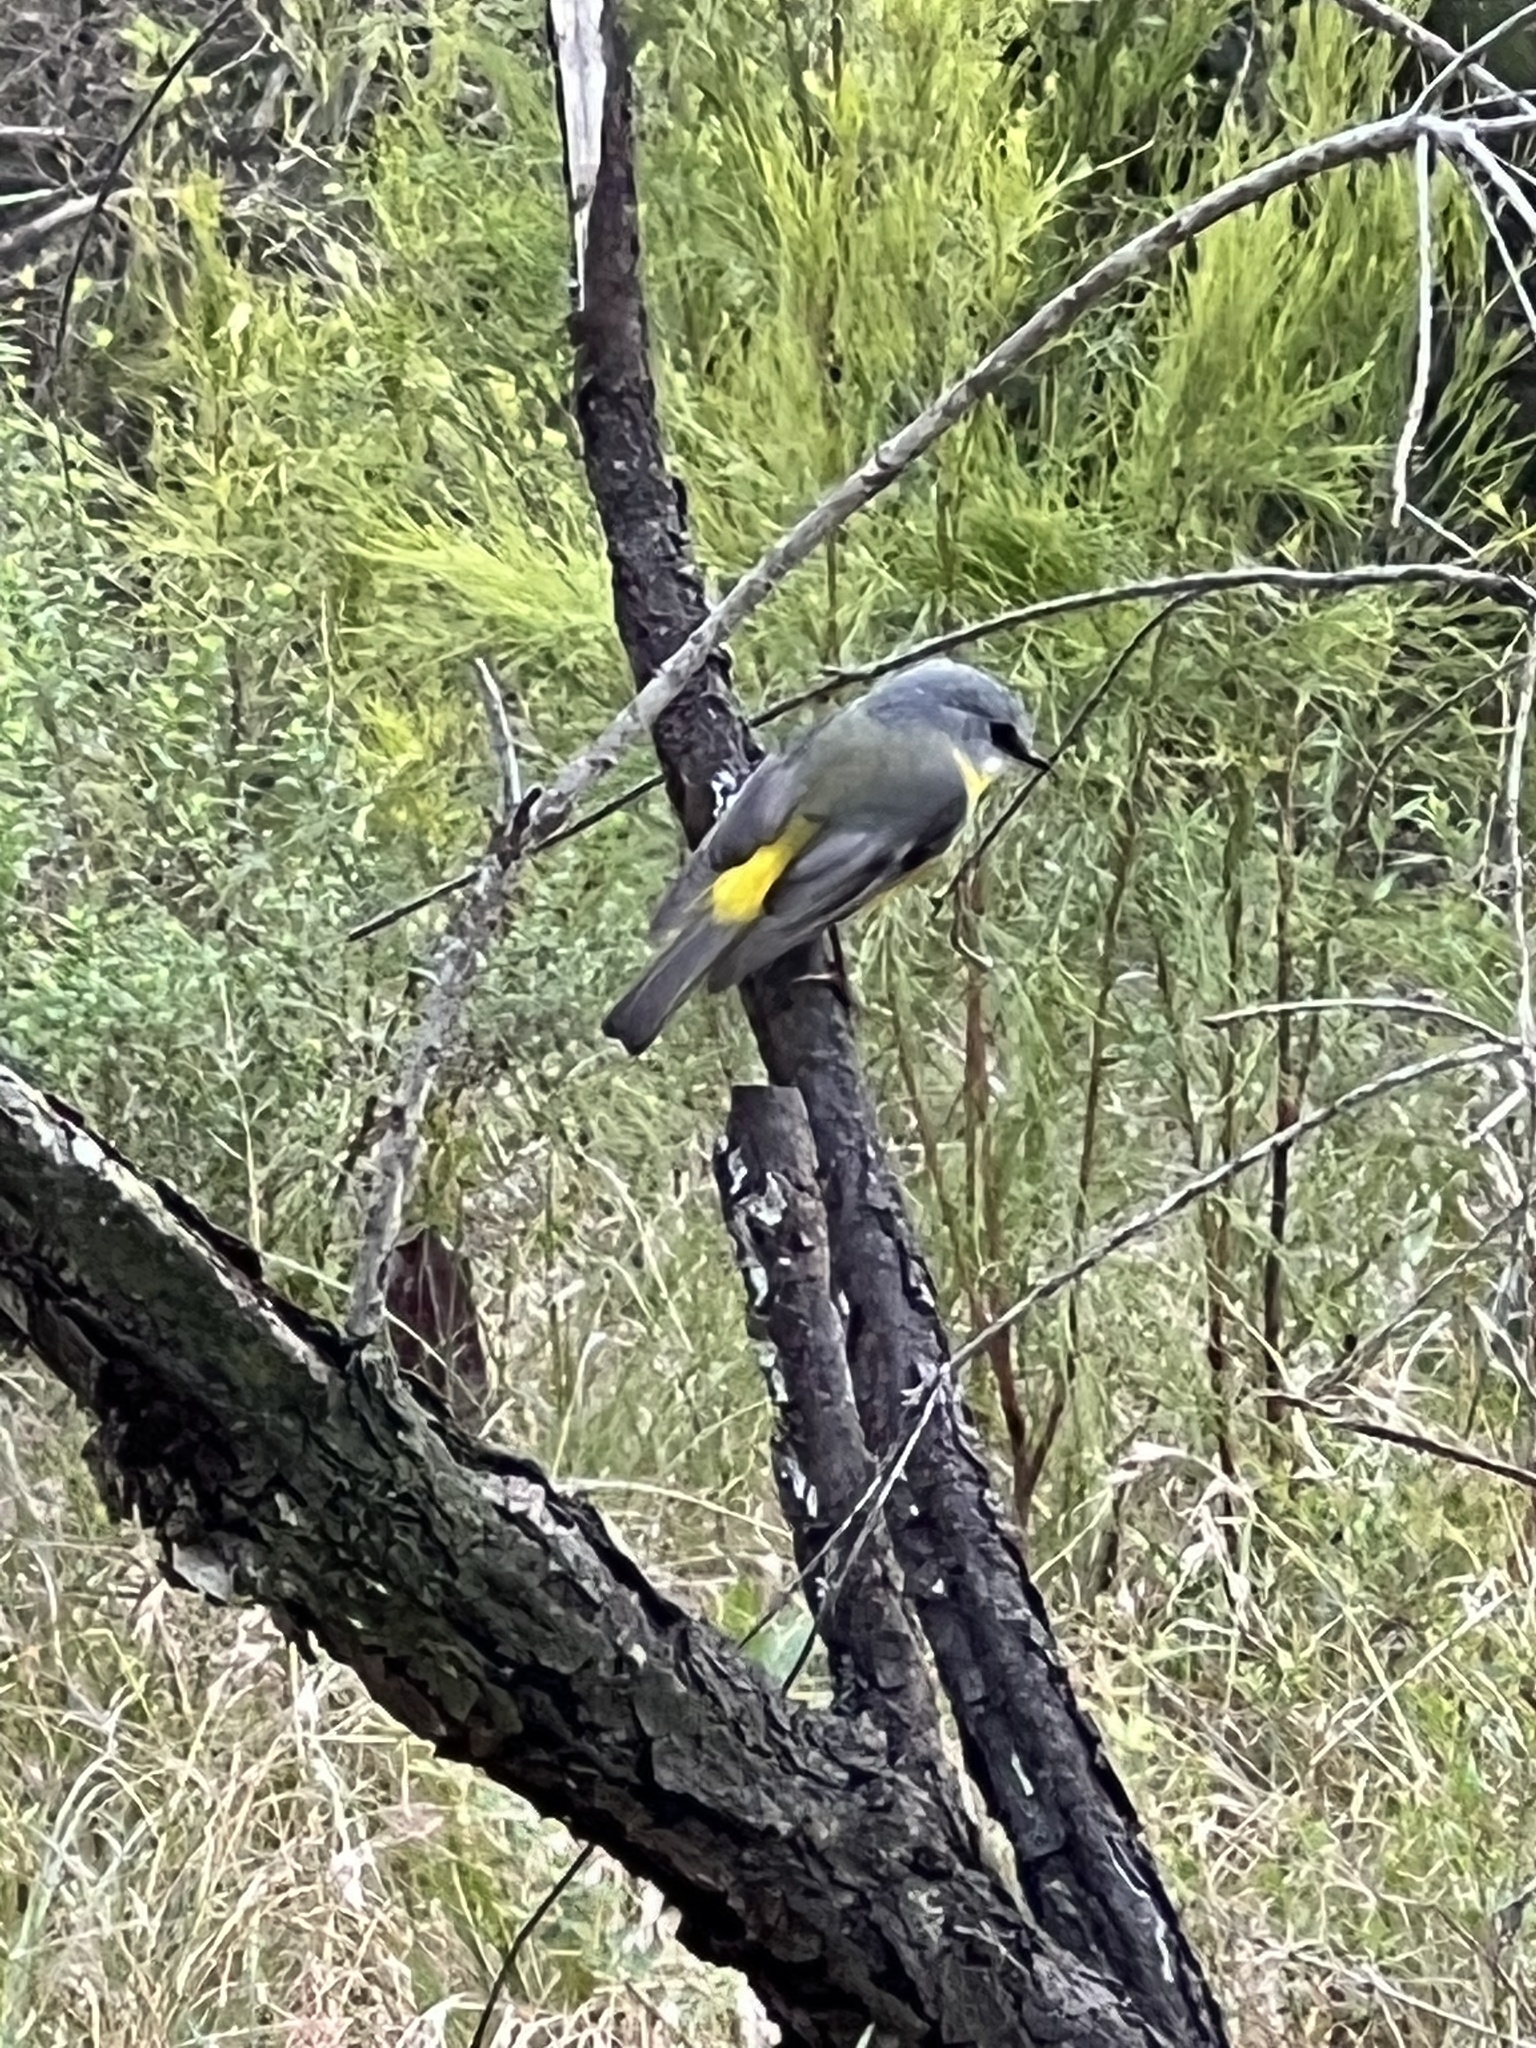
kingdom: Animalia
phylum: Chordata
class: Aves
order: Passeriformes
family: Petroicidae
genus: Eopsaltria
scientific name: Eopsaltria australis
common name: Eastern yellow robin
